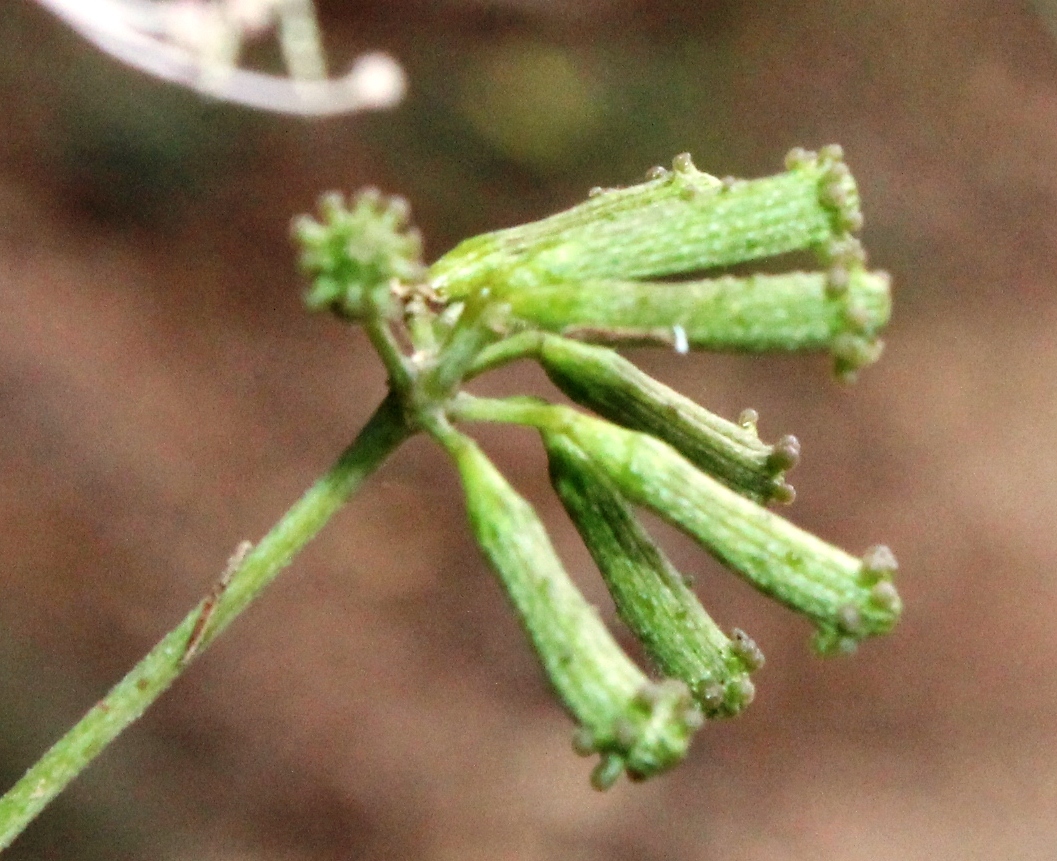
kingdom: Plantae
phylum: Tracheophyta
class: Magnoliopsida
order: Caryophyllales
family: Nyctaginaceae
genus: Commicarpus
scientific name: Commicarpus plumbagineus
